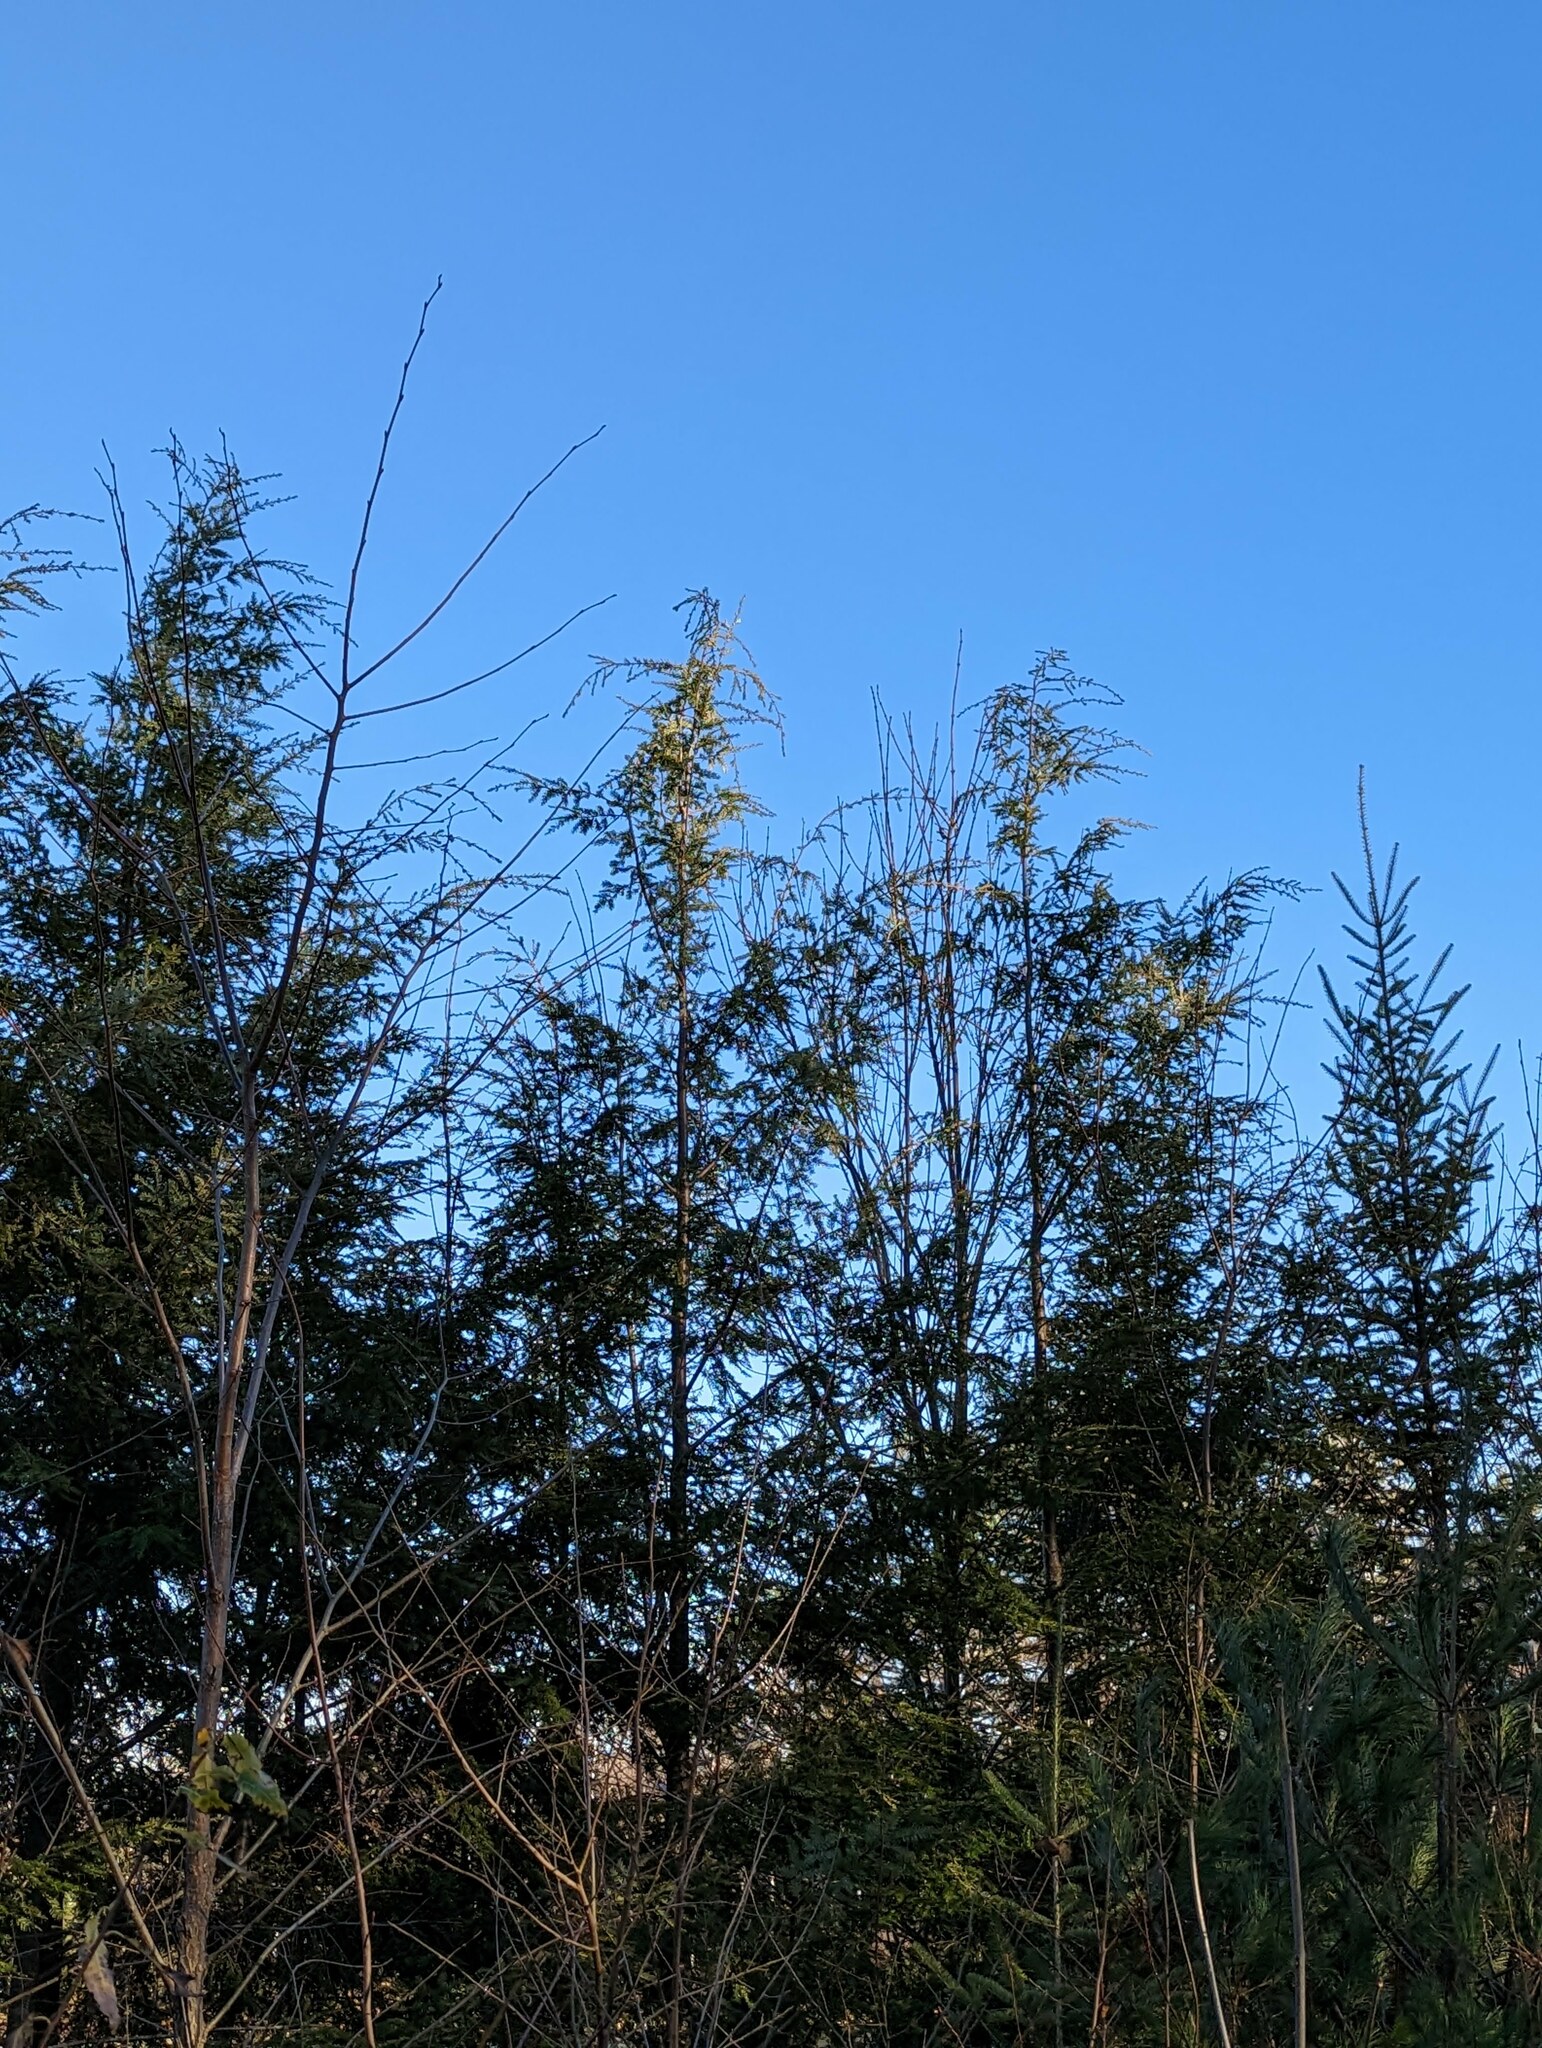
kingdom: Plantae
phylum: Tracheophyta
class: Pinopsida
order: Pinales
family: Pinaceae
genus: Tsuga
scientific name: Tsuga canadensis
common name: Eastern hemlock
